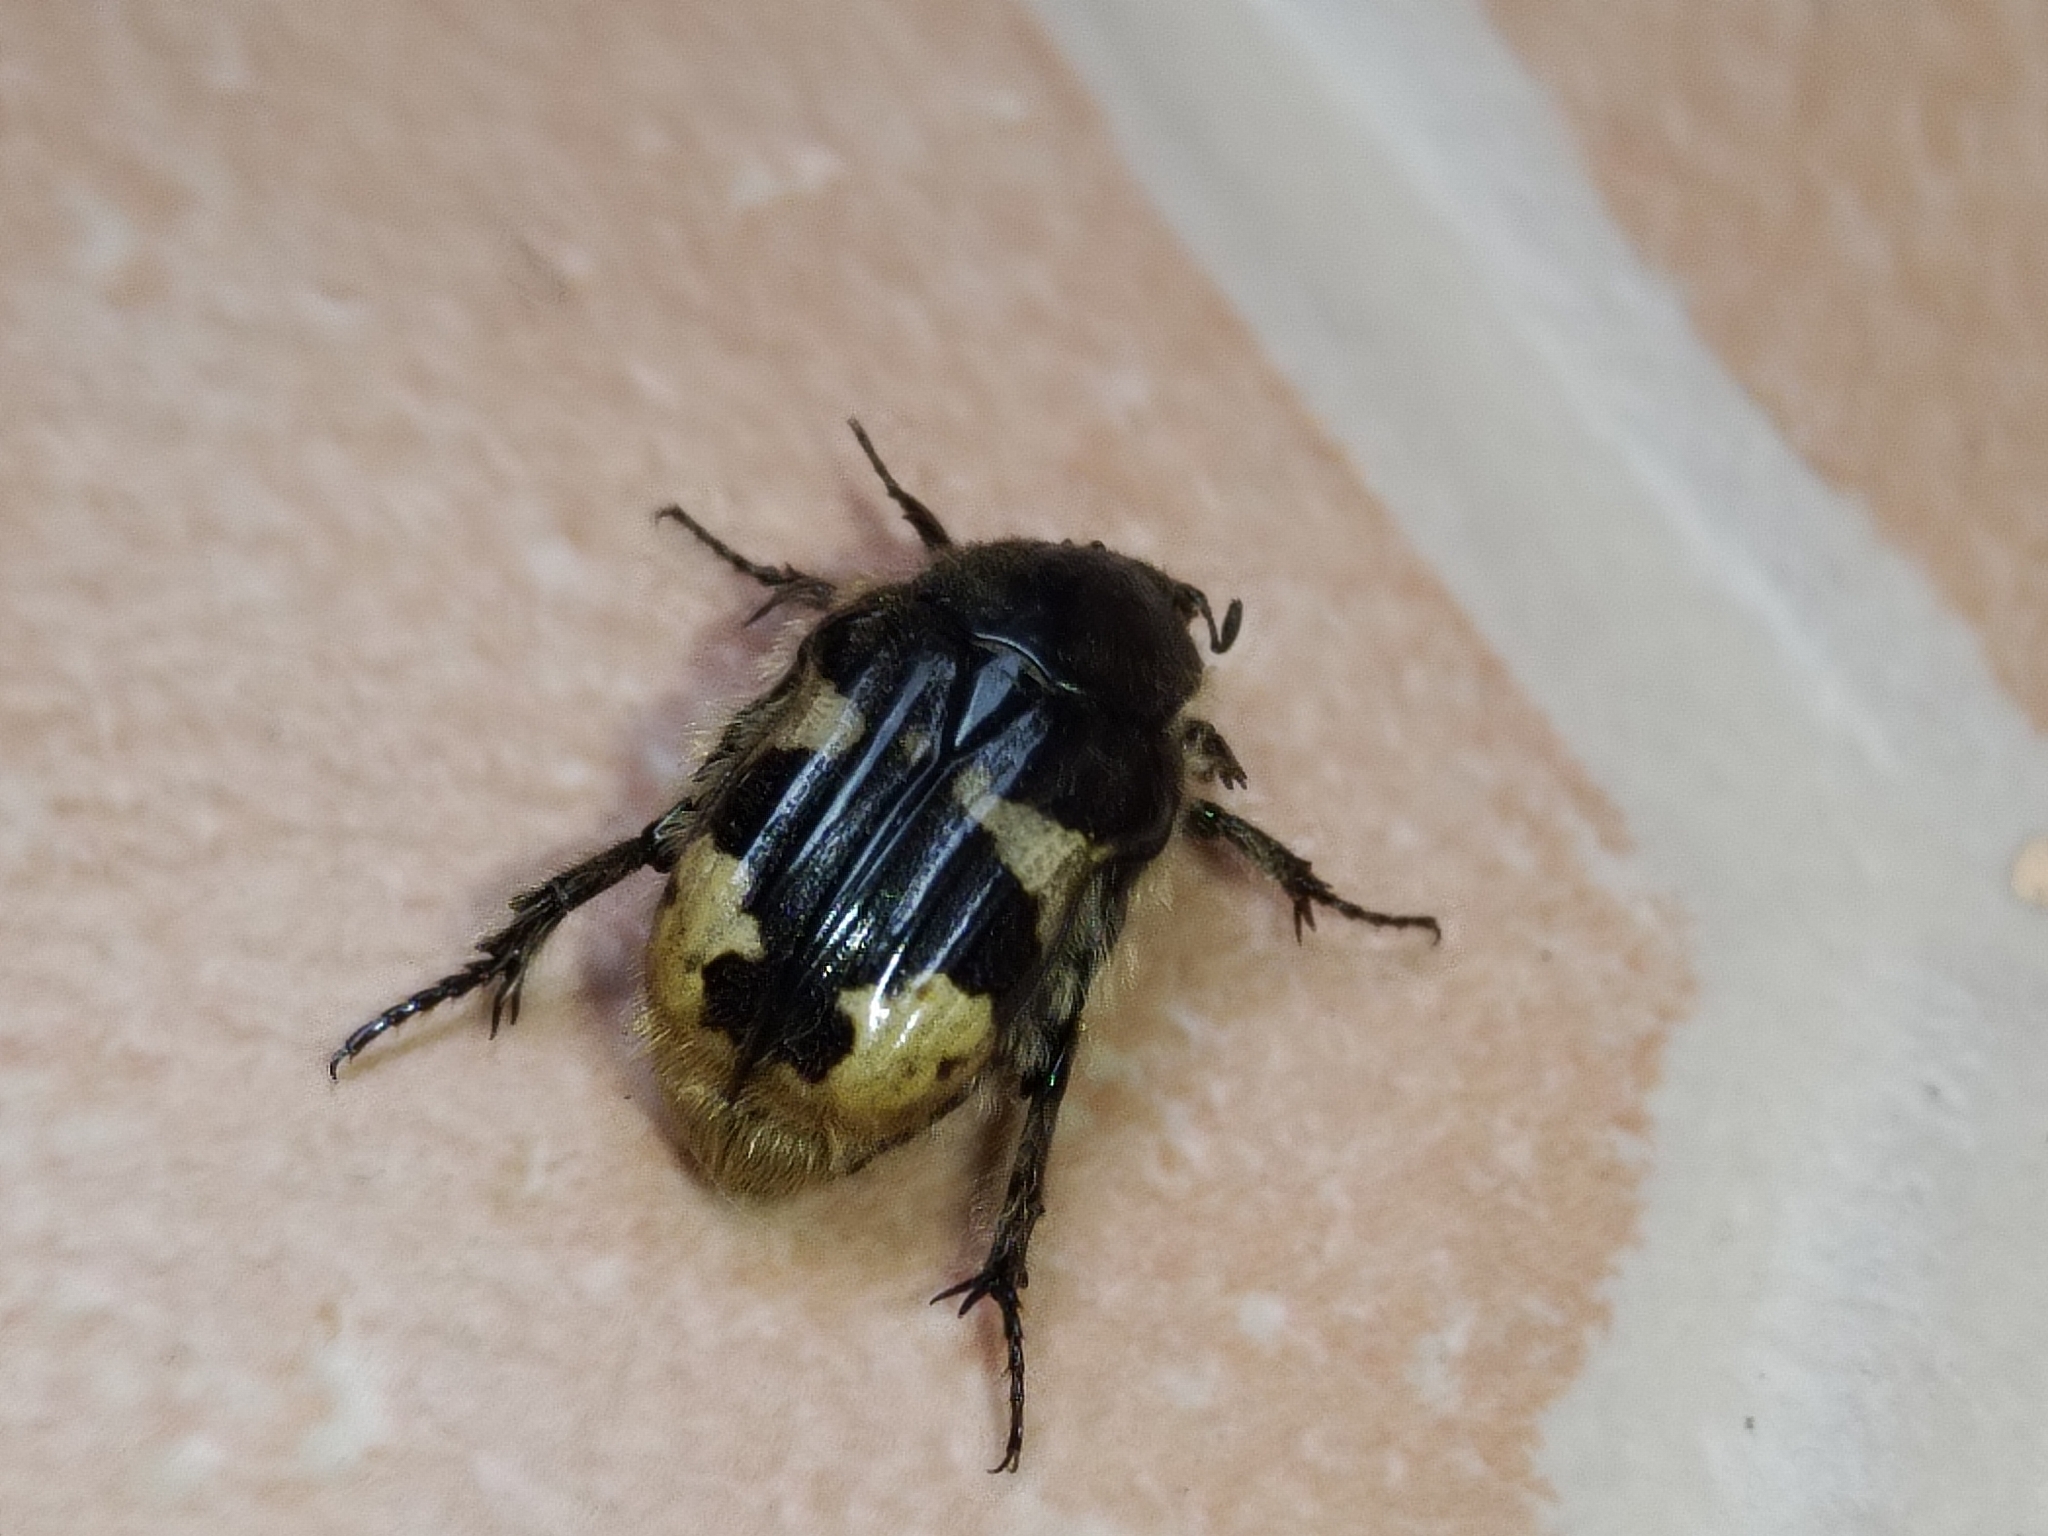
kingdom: Animalia
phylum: Arthropoda
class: Insecta
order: Coleoptera
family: Scarabaeidae
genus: Euphoria
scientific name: Euphoria basalis
